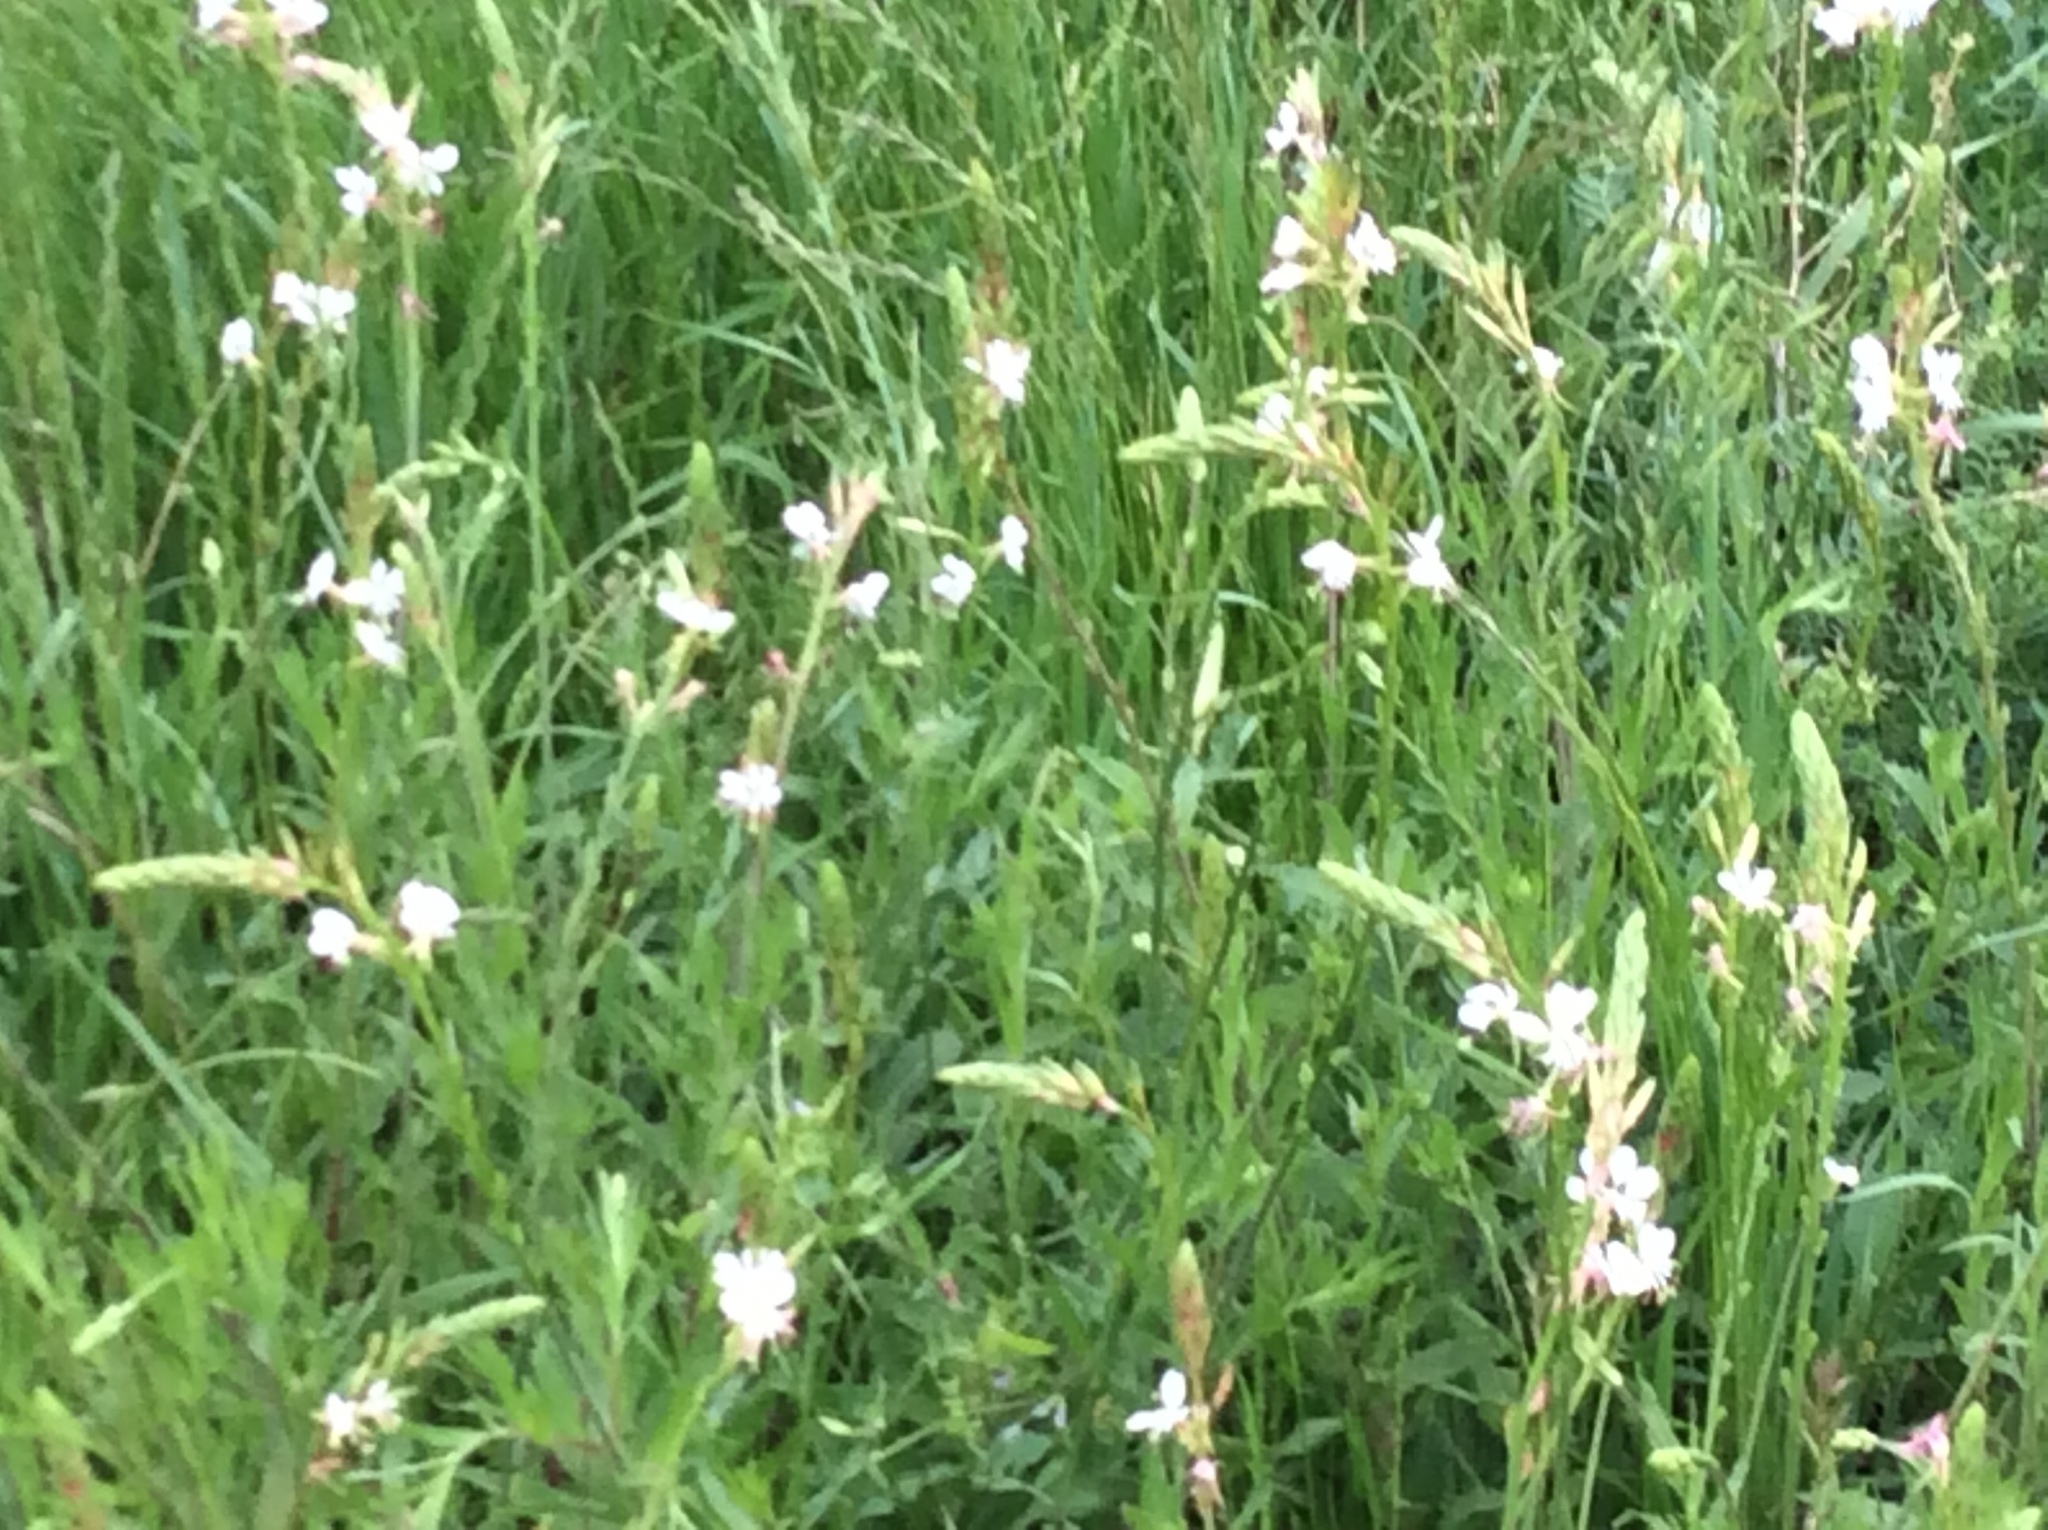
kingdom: Plantae
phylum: Tracheophyta
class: Magnoliopsida
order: Myrtales
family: Onagraceae
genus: Oenothera
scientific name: Oenothera suffulta
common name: Kisses
